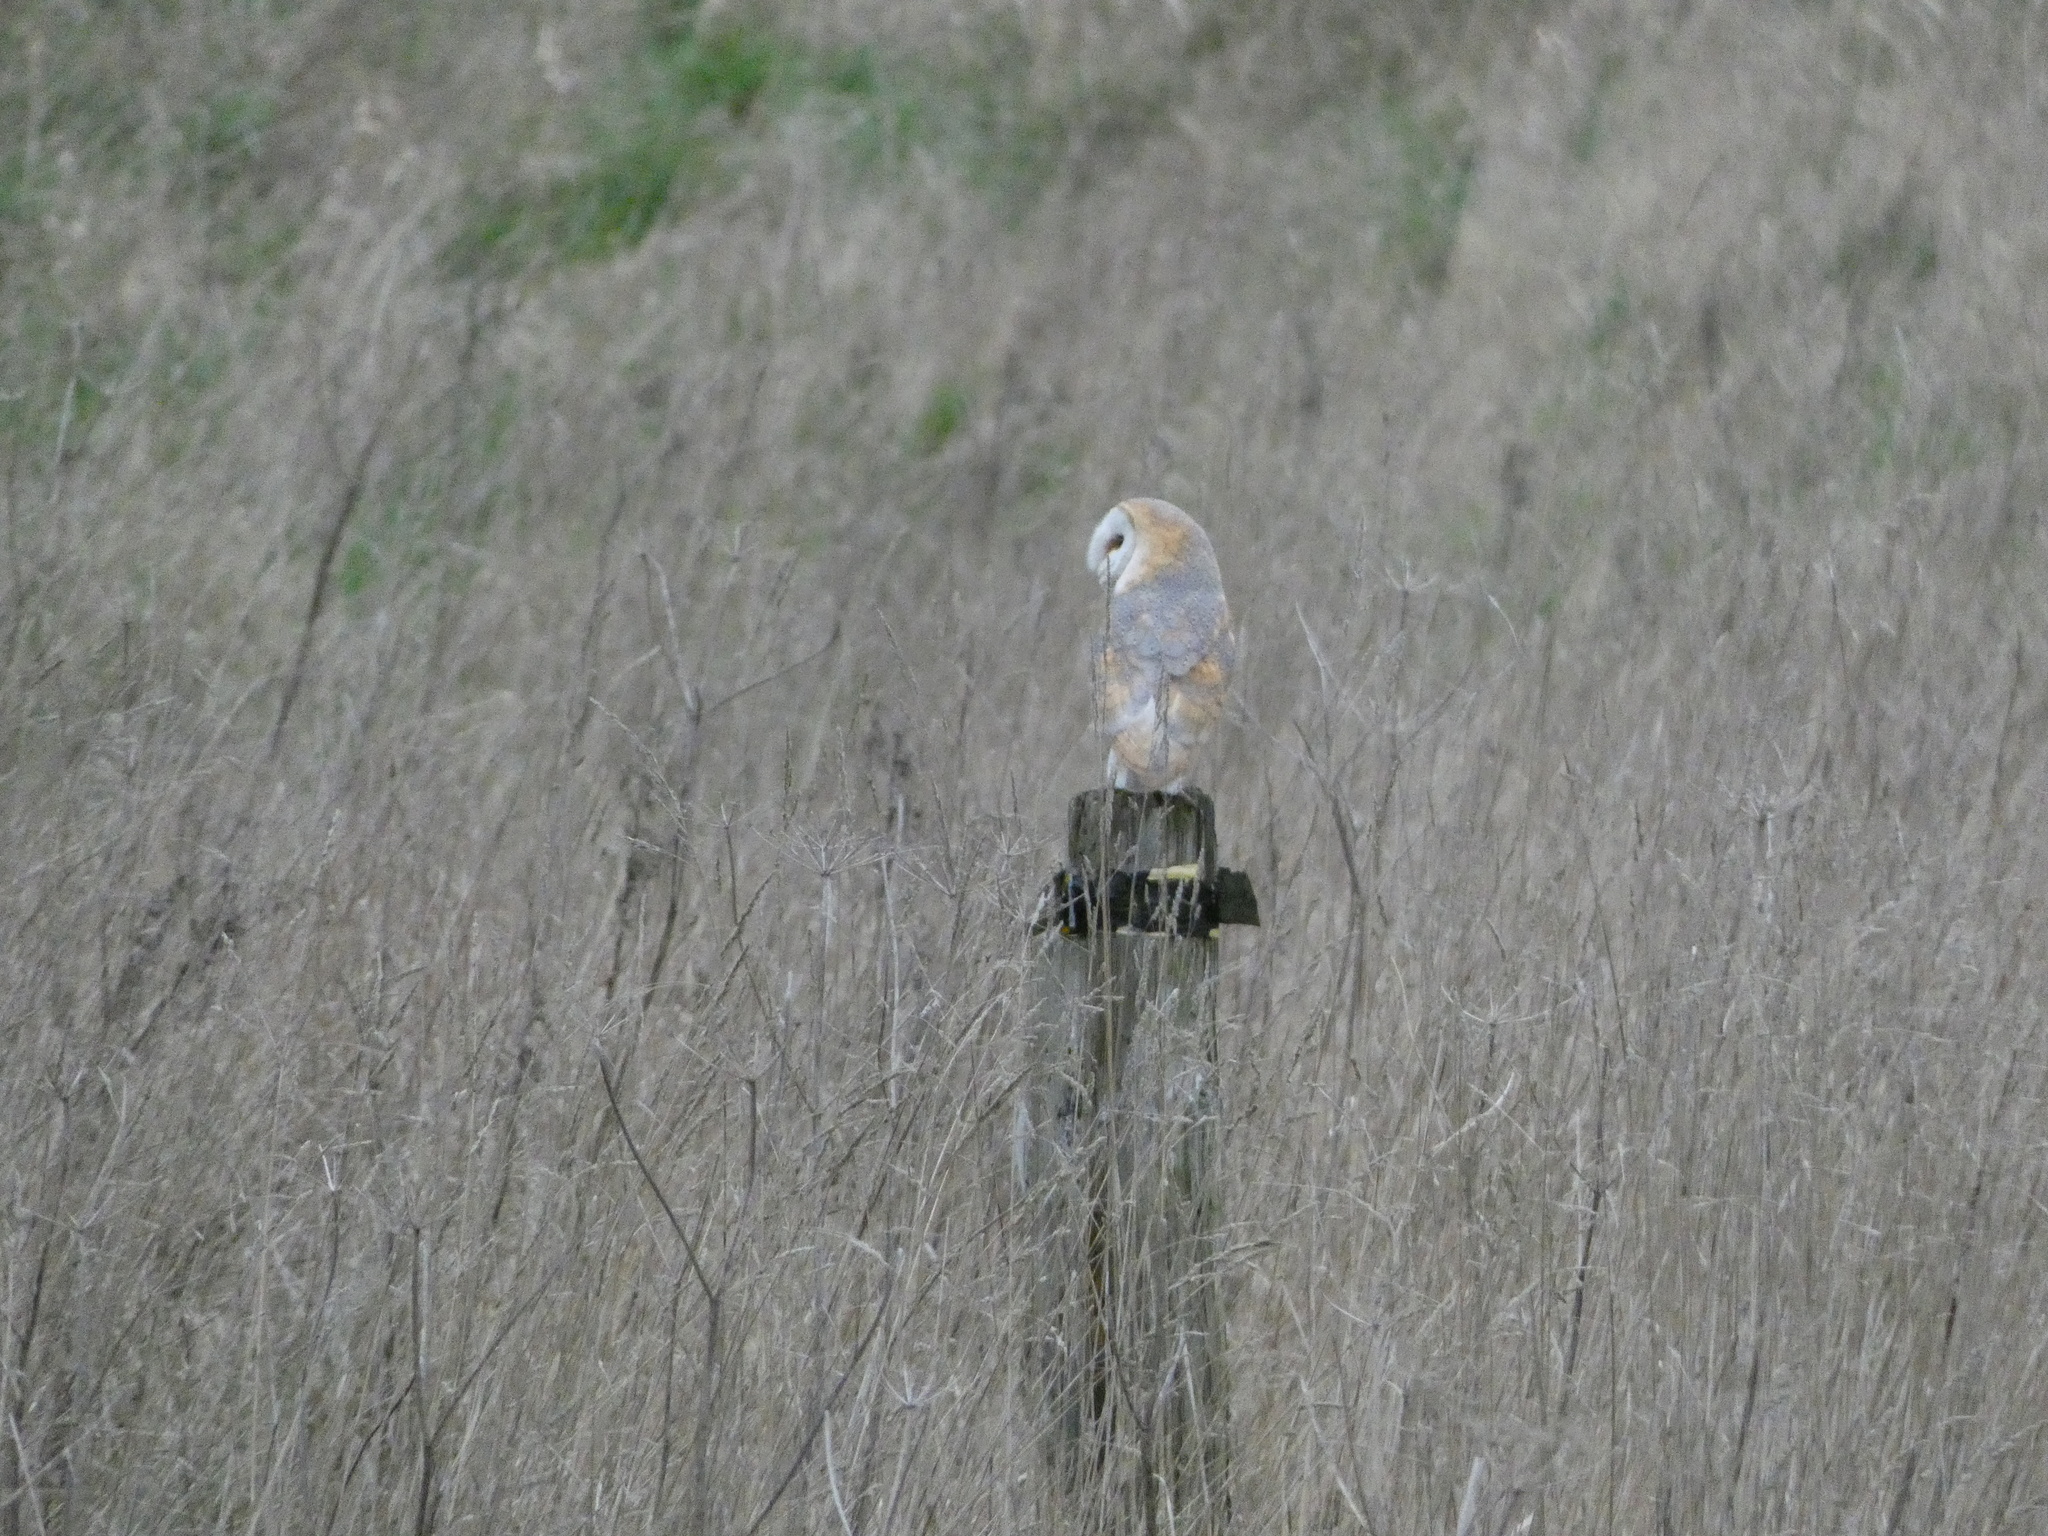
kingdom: Animalia
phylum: Chordata
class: Aves
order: Strigiformes
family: Tytonidae
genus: Tyto
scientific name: Tyto alba
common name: Barn owl
